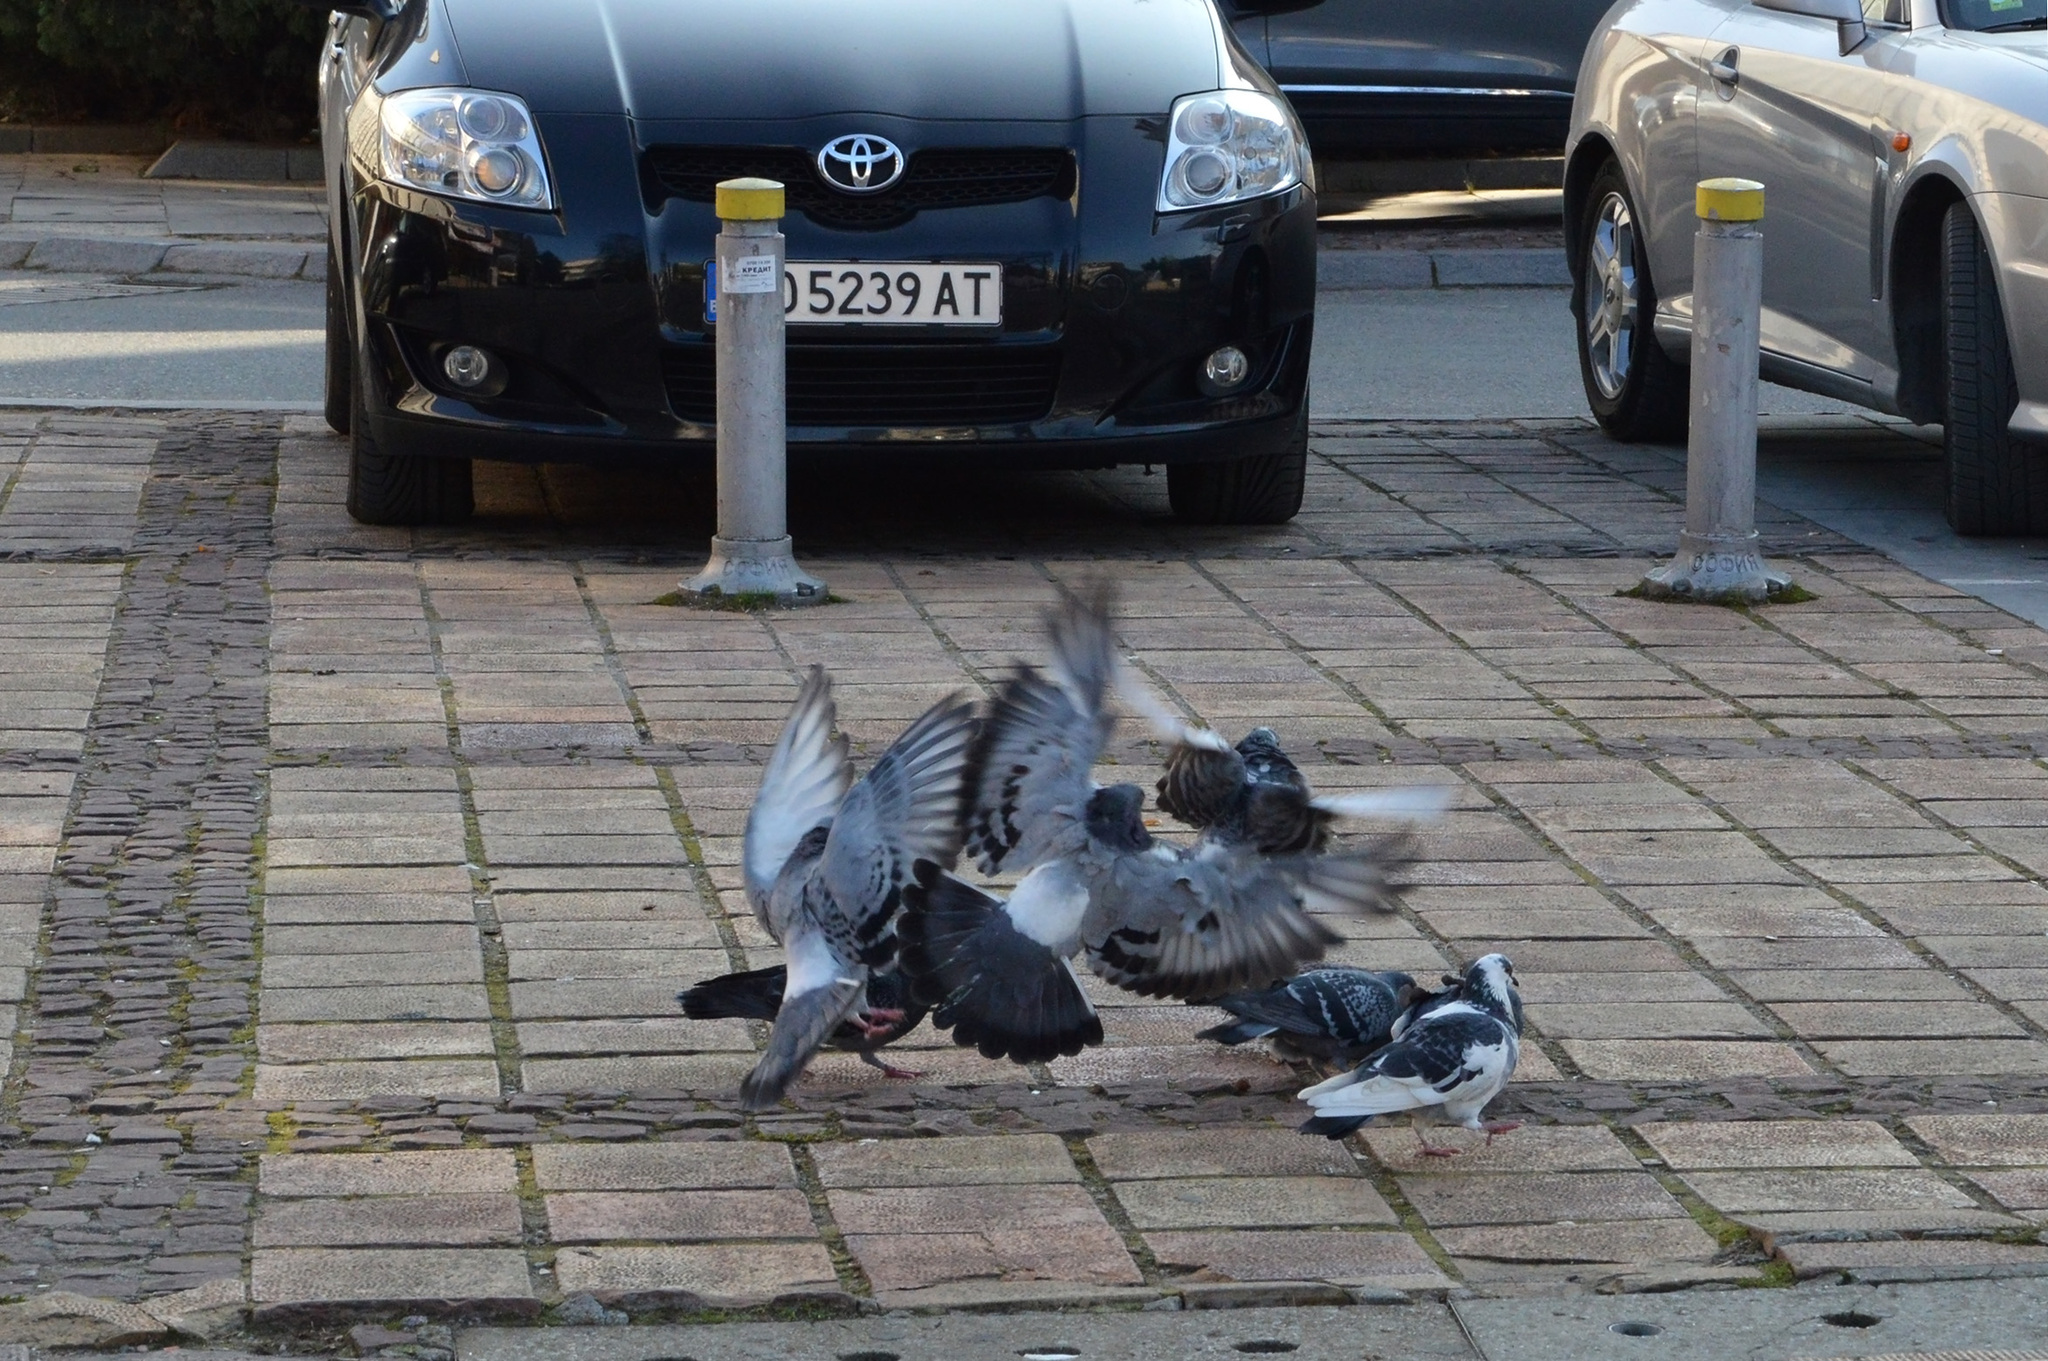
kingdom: Animalia
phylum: Chordata
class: Aves
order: Columbiformes
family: Columbidae
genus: Columba
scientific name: Columba livia
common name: Rock pigeon
